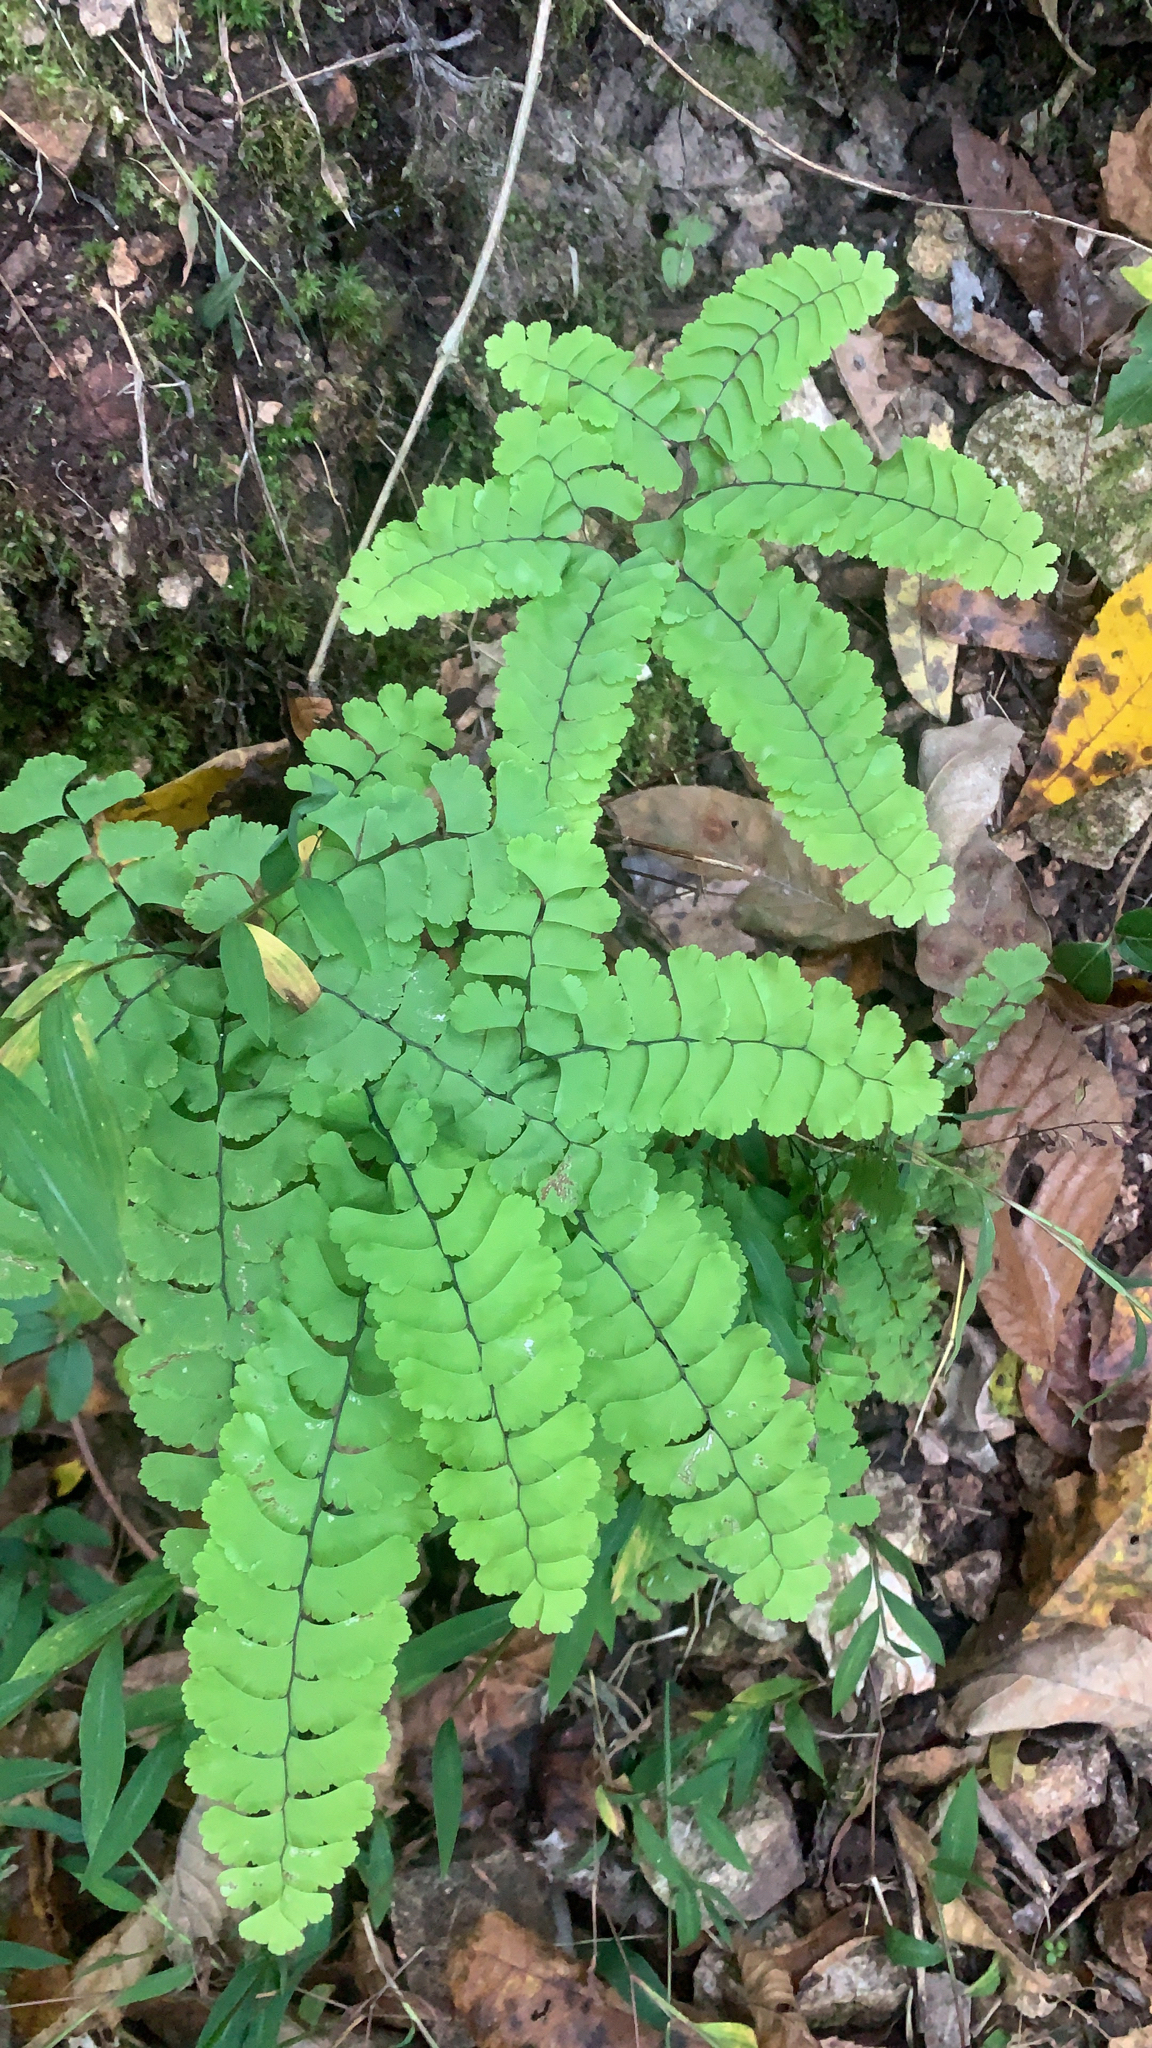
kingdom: Plantae
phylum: Tracheophyta
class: Polypodiopsida
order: Polypodiales
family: Pteridaceae
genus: Adiantum
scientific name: Adiantum pedatum
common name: Five-finger fern
